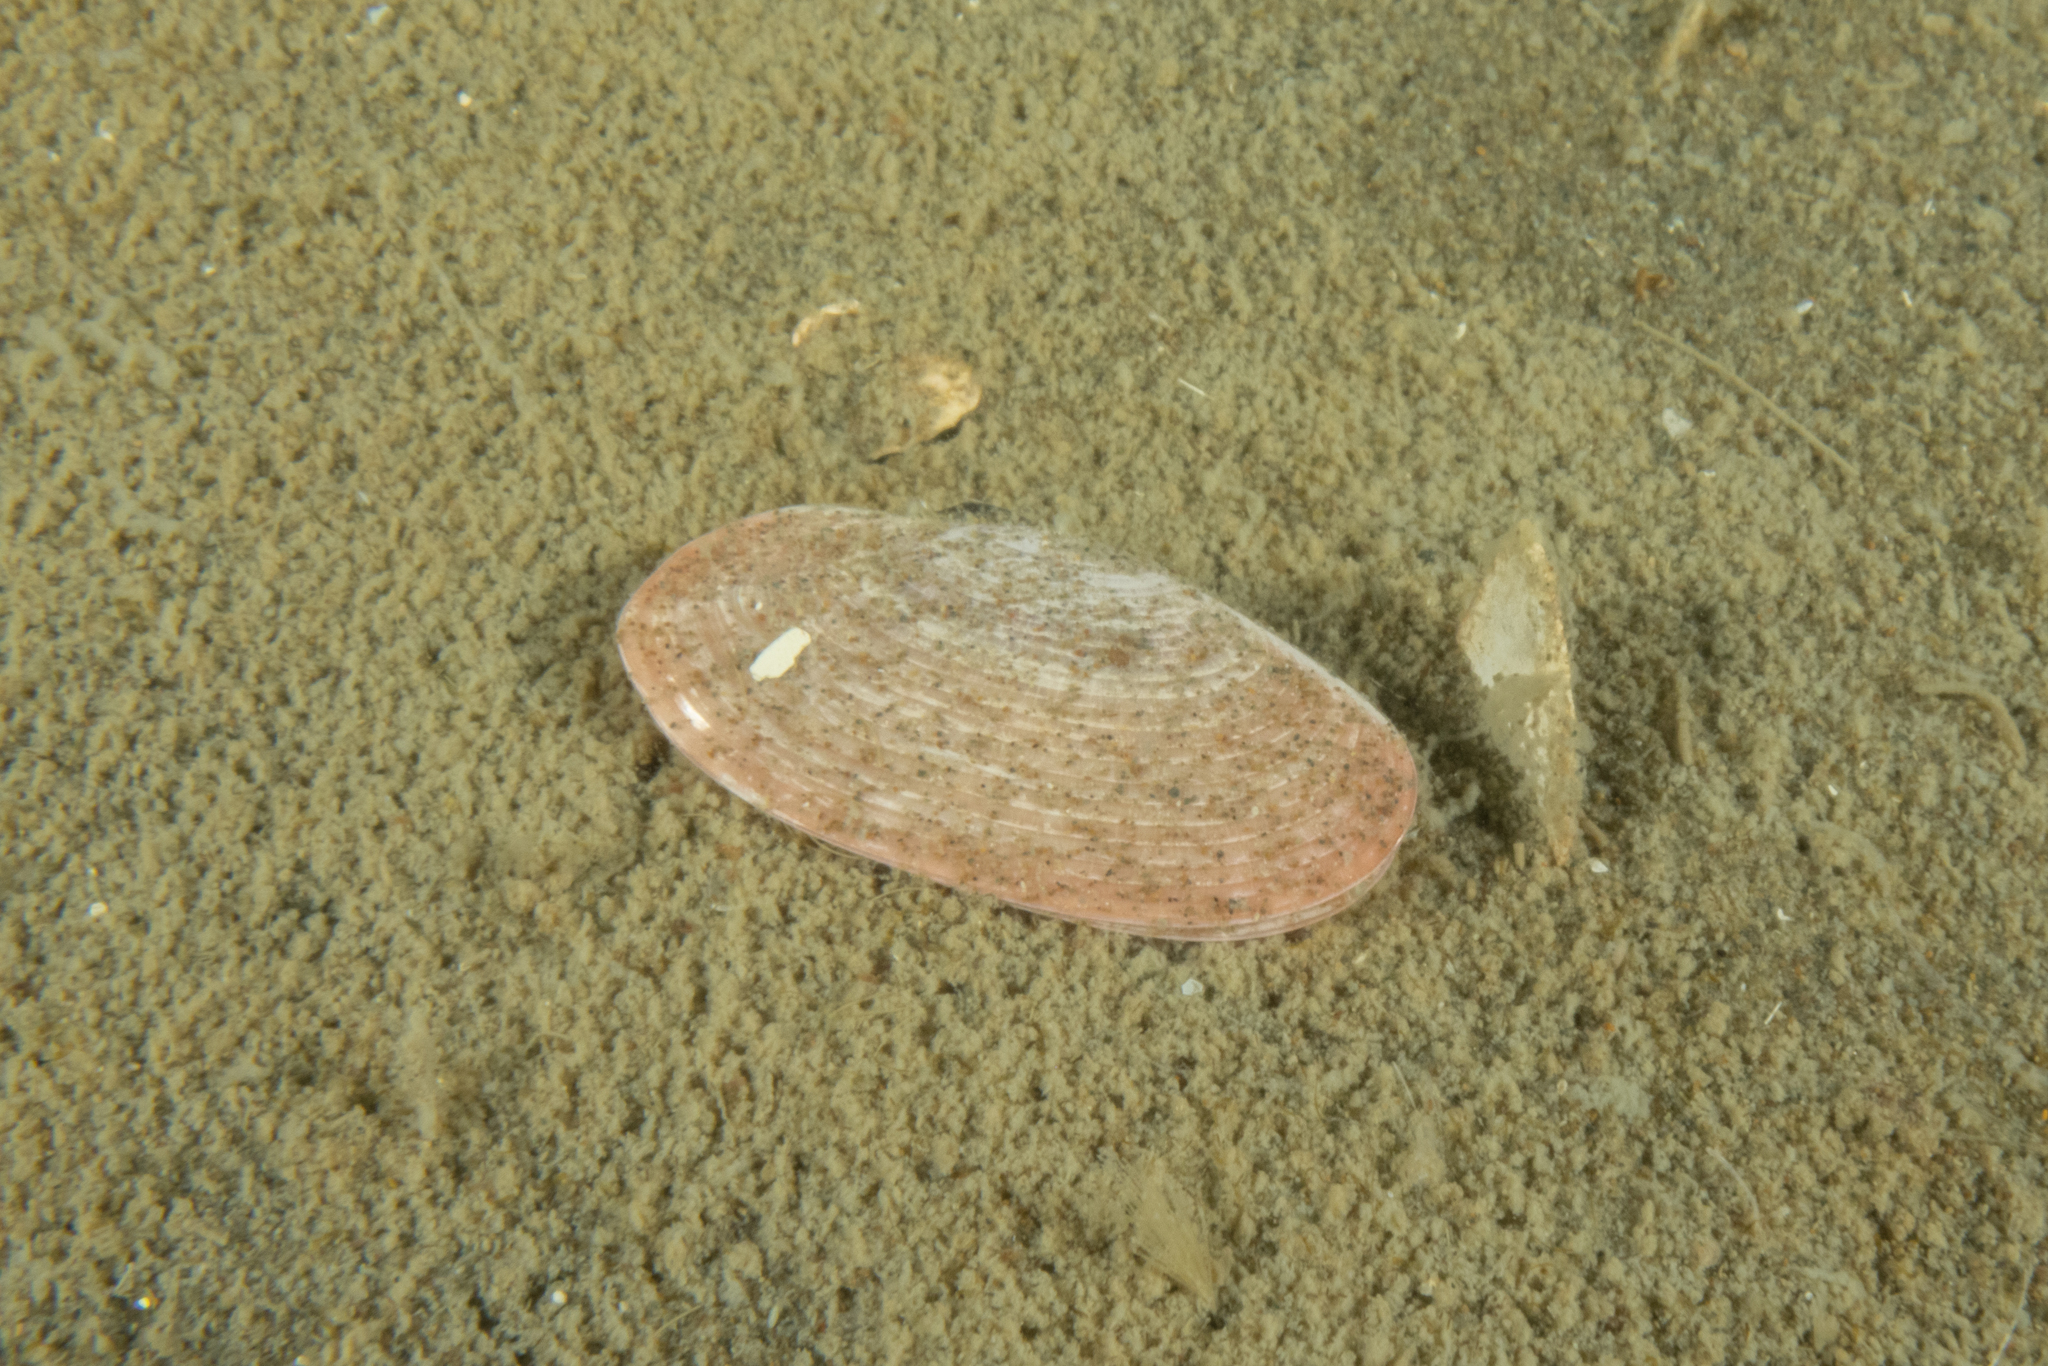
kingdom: Animalia
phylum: Mollusca
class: Bivalvia
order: Cardiida
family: Psammobiidae
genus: Gari
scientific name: Gari lineolata
